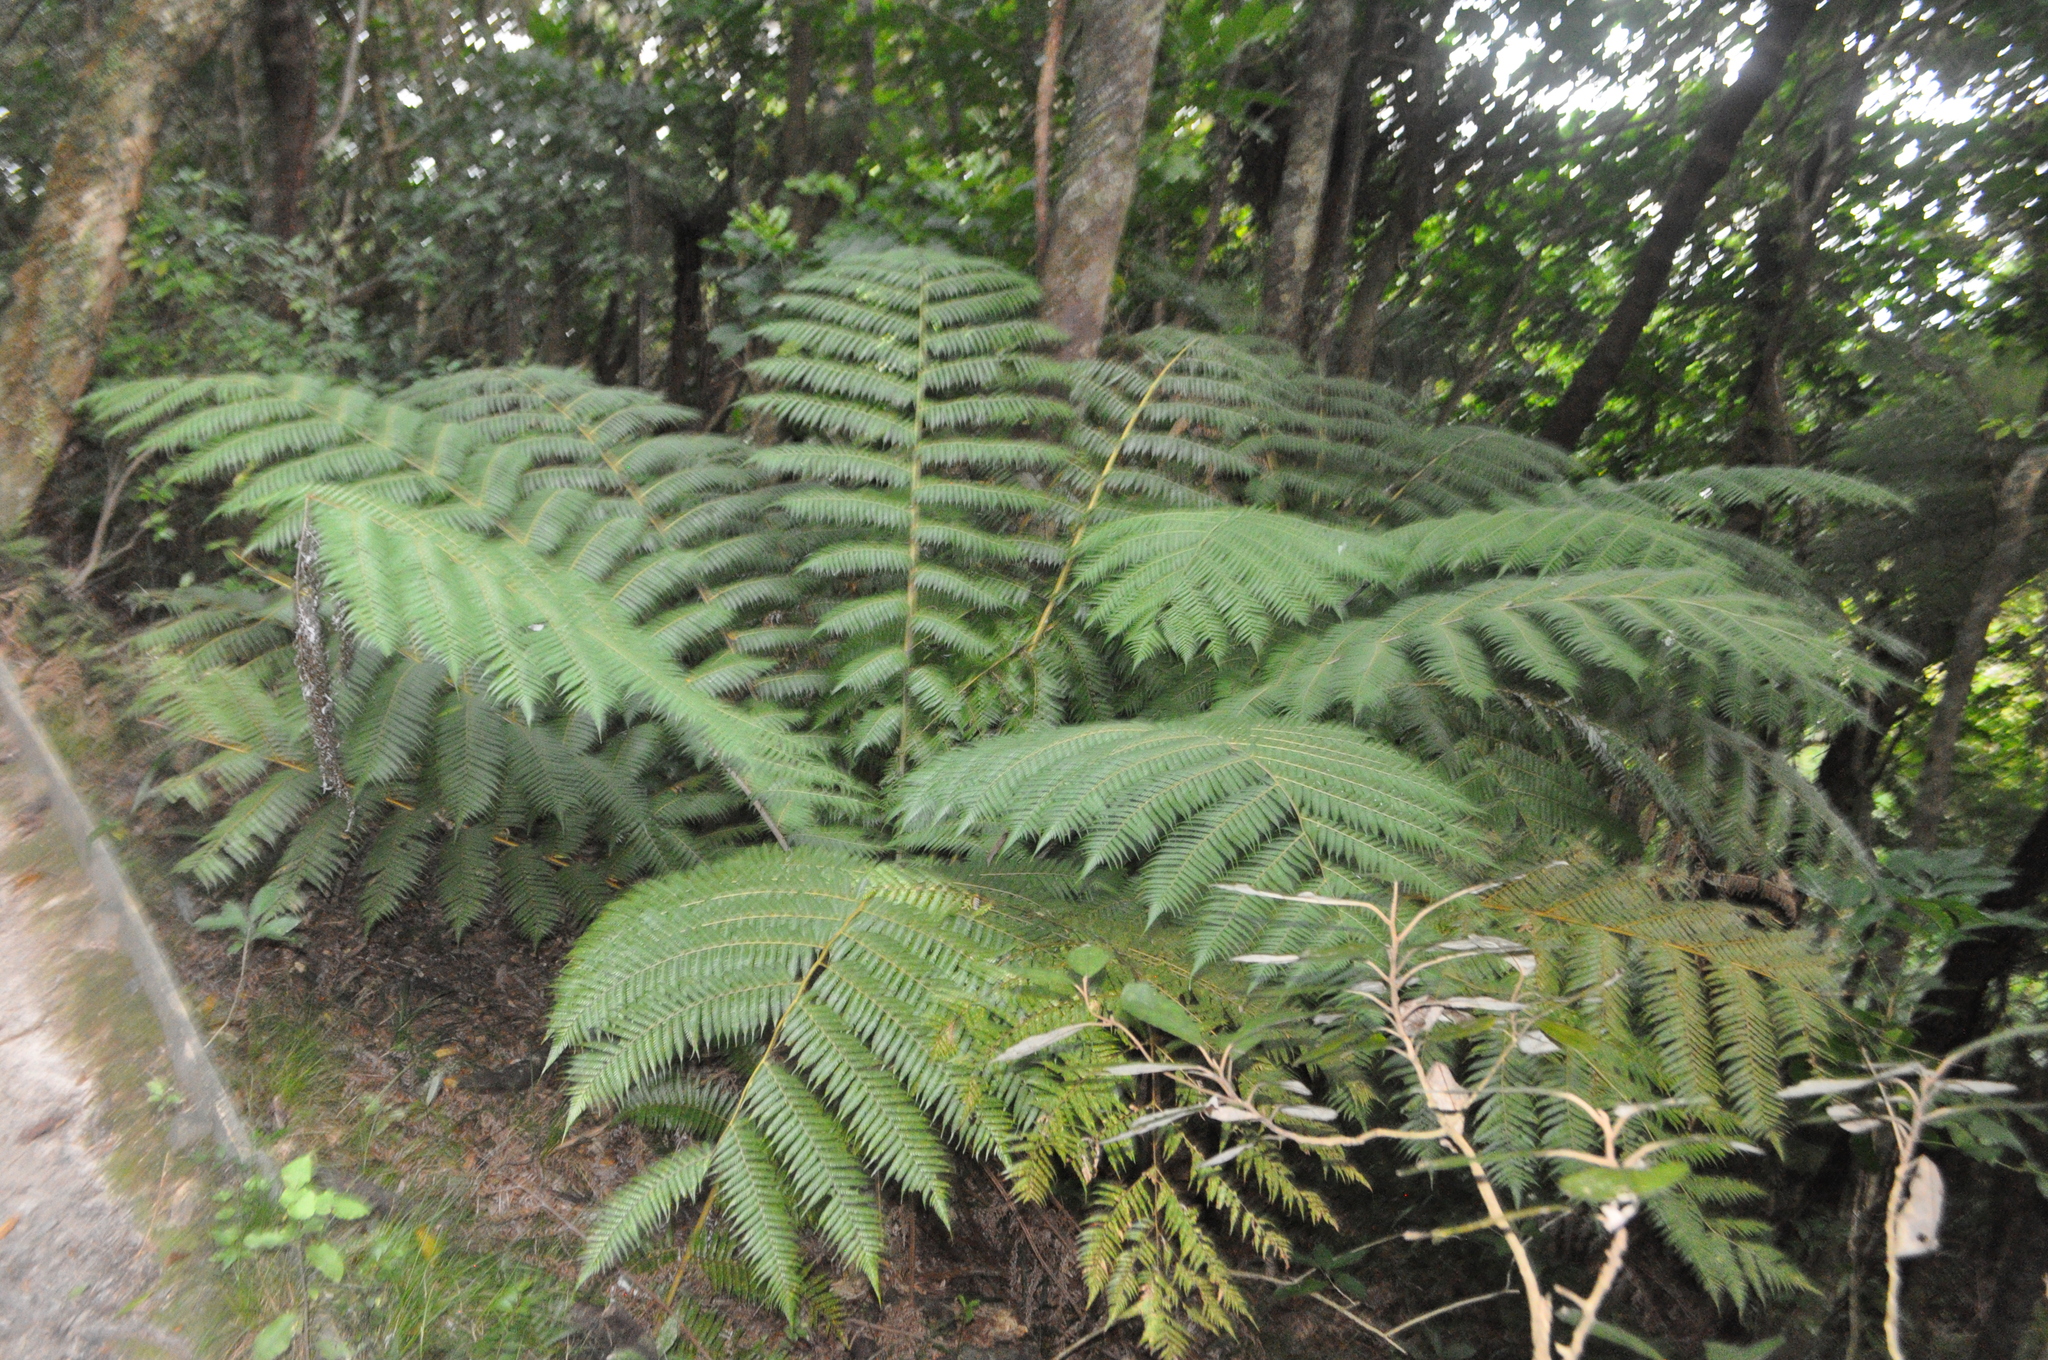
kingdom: Plantae
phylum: Tracheophyta
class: Polypodiopsida
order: Cyatheales
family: Cyatheaceae
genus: Alsophila
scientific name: Alsophila dealbata
